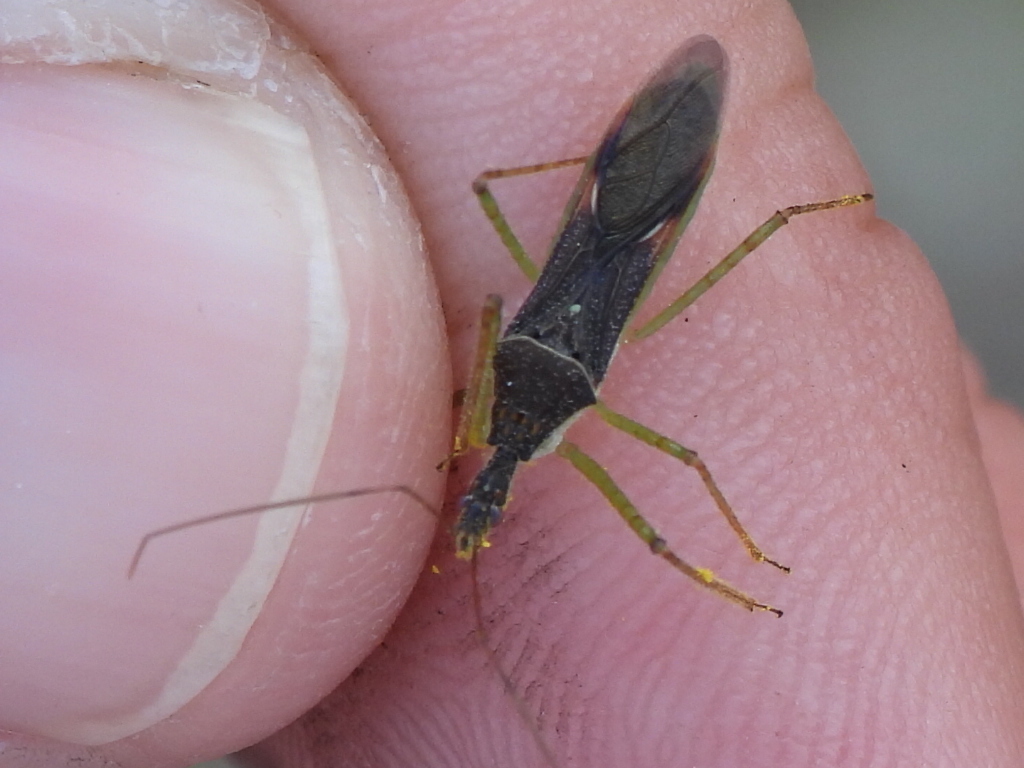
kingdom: Animalia
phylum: Arthropoda
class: Insecta
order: Hemiptera
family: Reduviidae
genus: Zelus
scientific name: Zelus renardii
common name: Assassin bug
